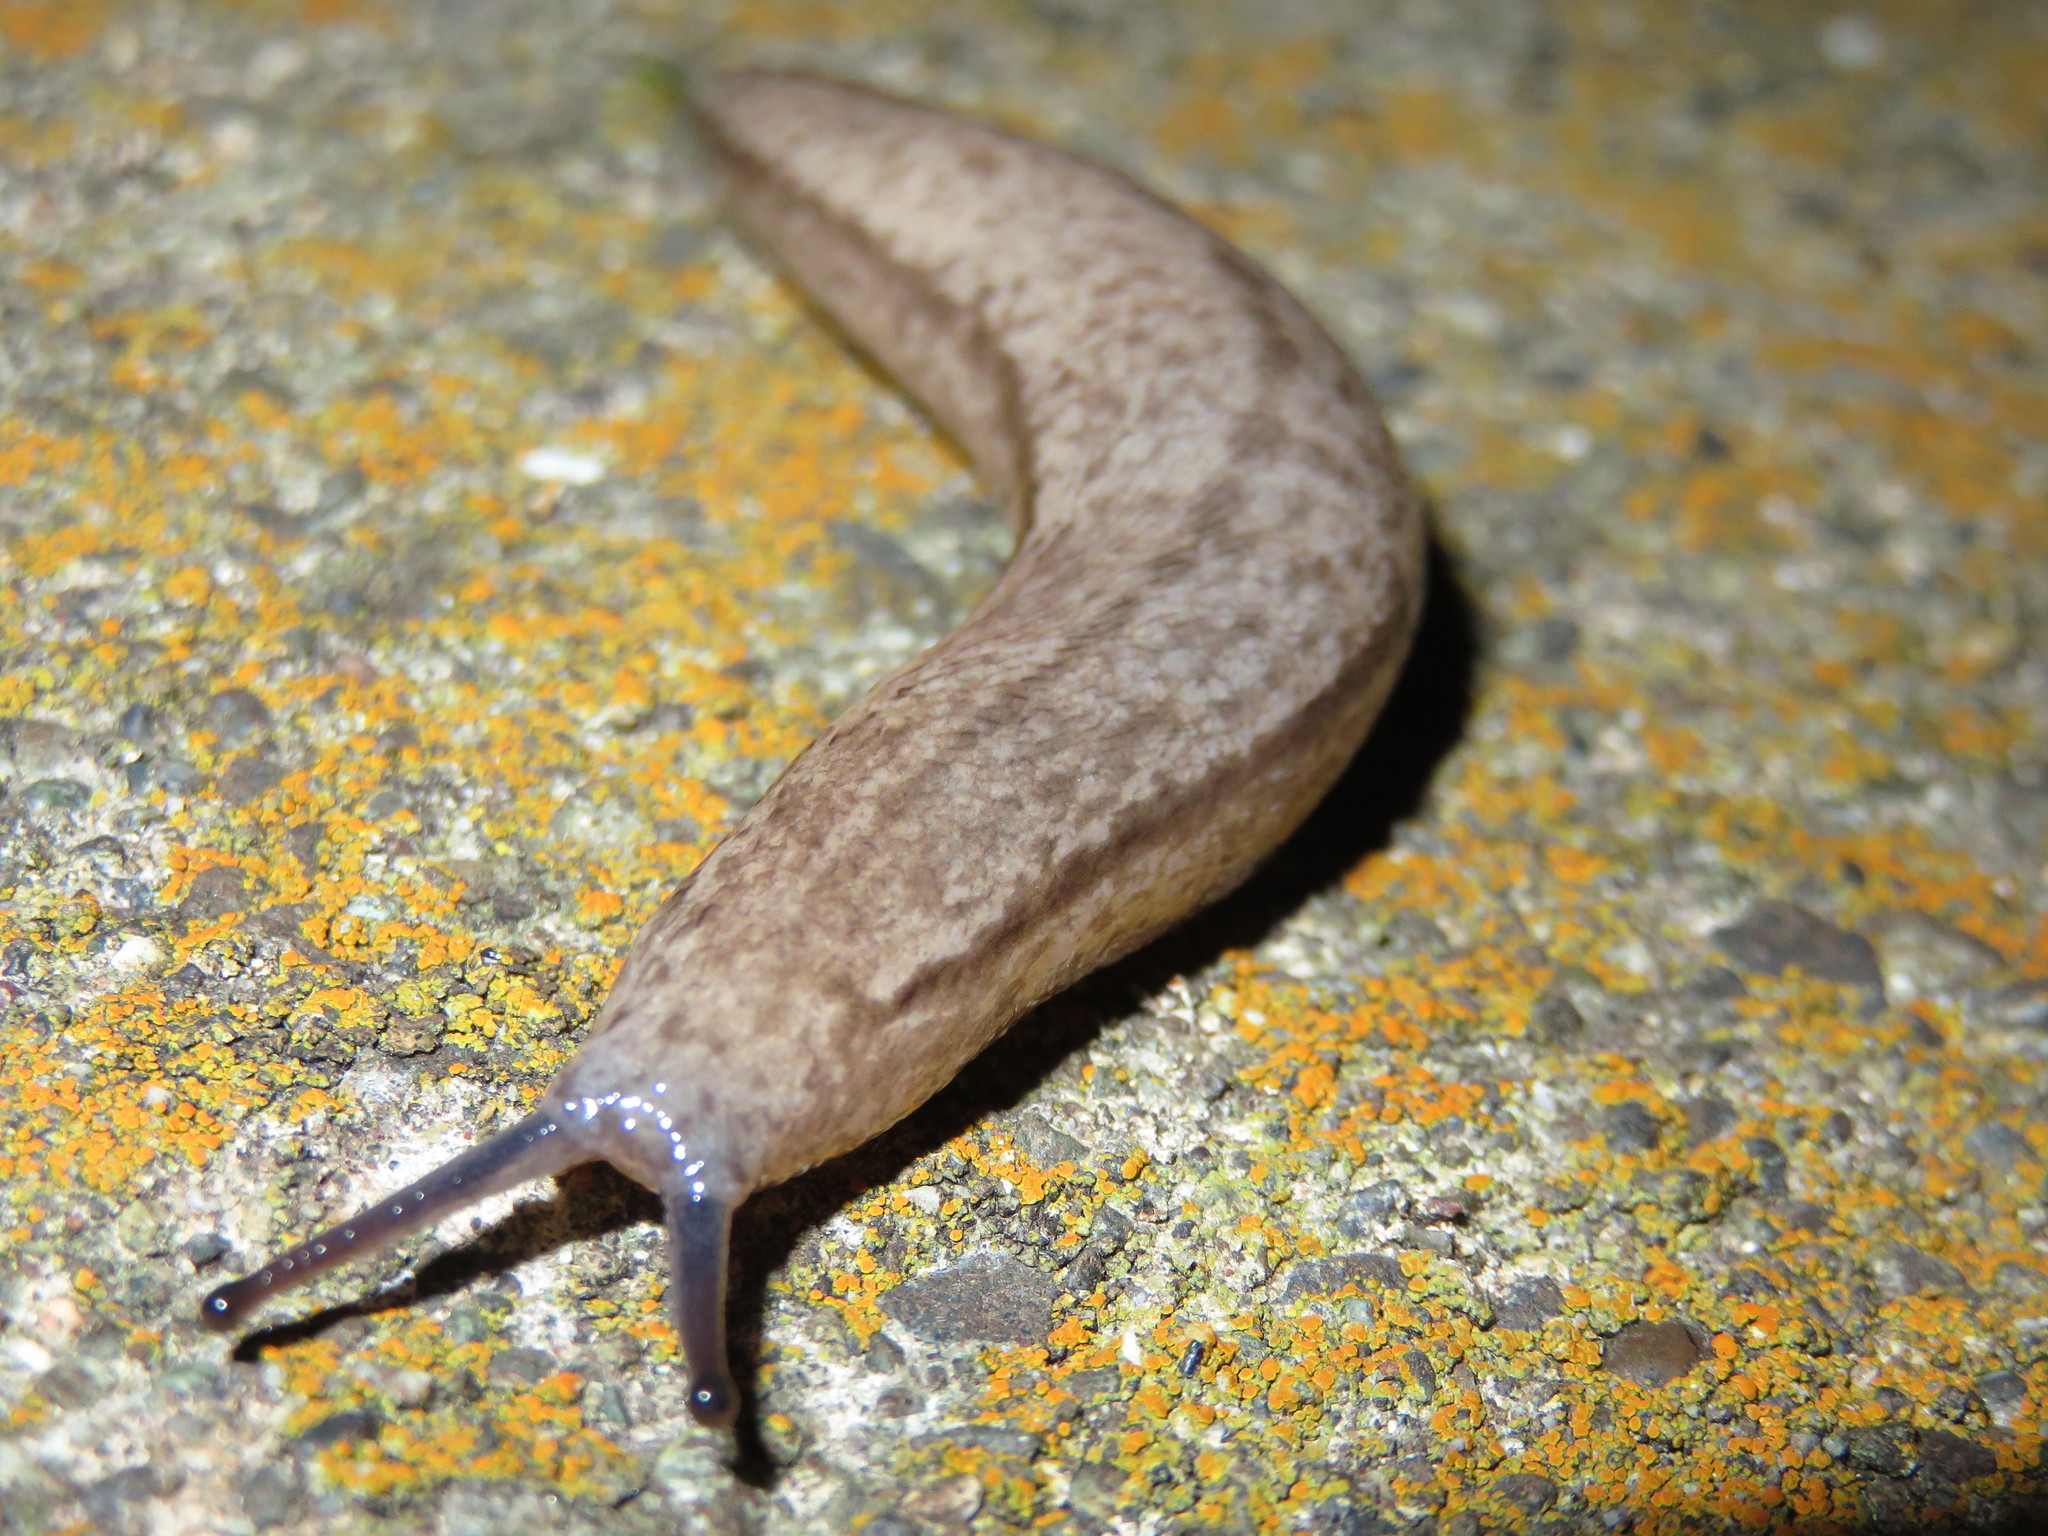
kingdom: Animalia
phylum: Mollusca
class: Gastropoda
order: Stylommatophora
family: Philomycidae
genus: Meghimatium
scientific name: Meghimatium bilineatum
